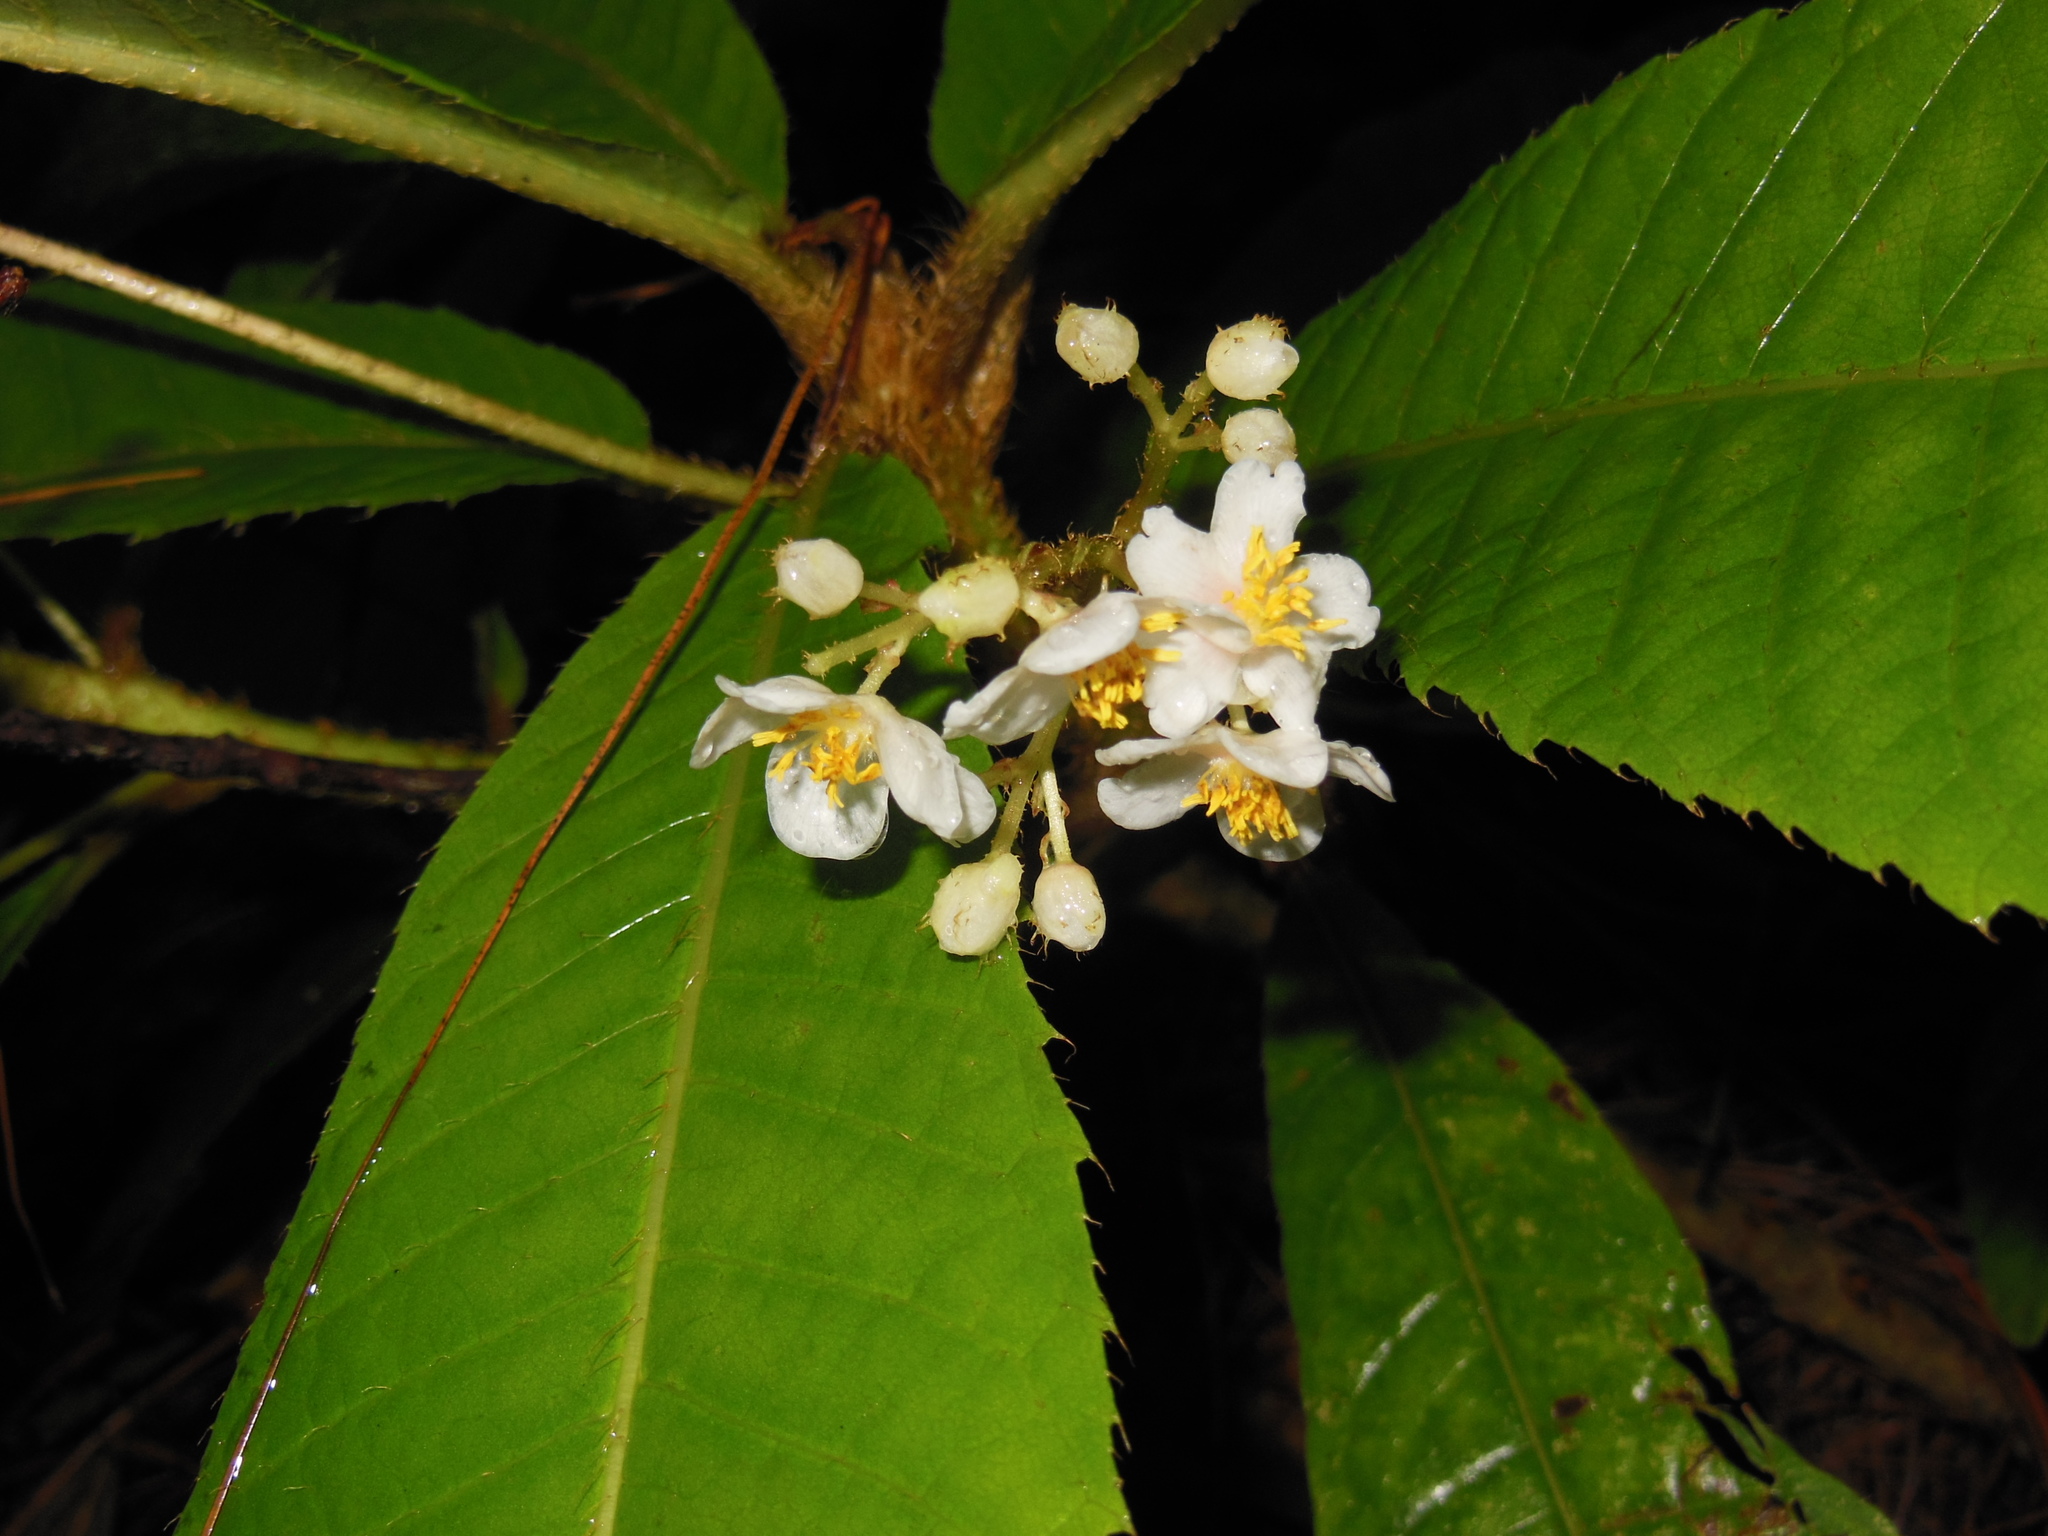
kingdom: Plantae
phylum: Tracheophyta
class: Magnoliopsida
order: Ericales
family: Actinidiaceae
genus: Saurauia
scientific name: Saurauia conzattii
